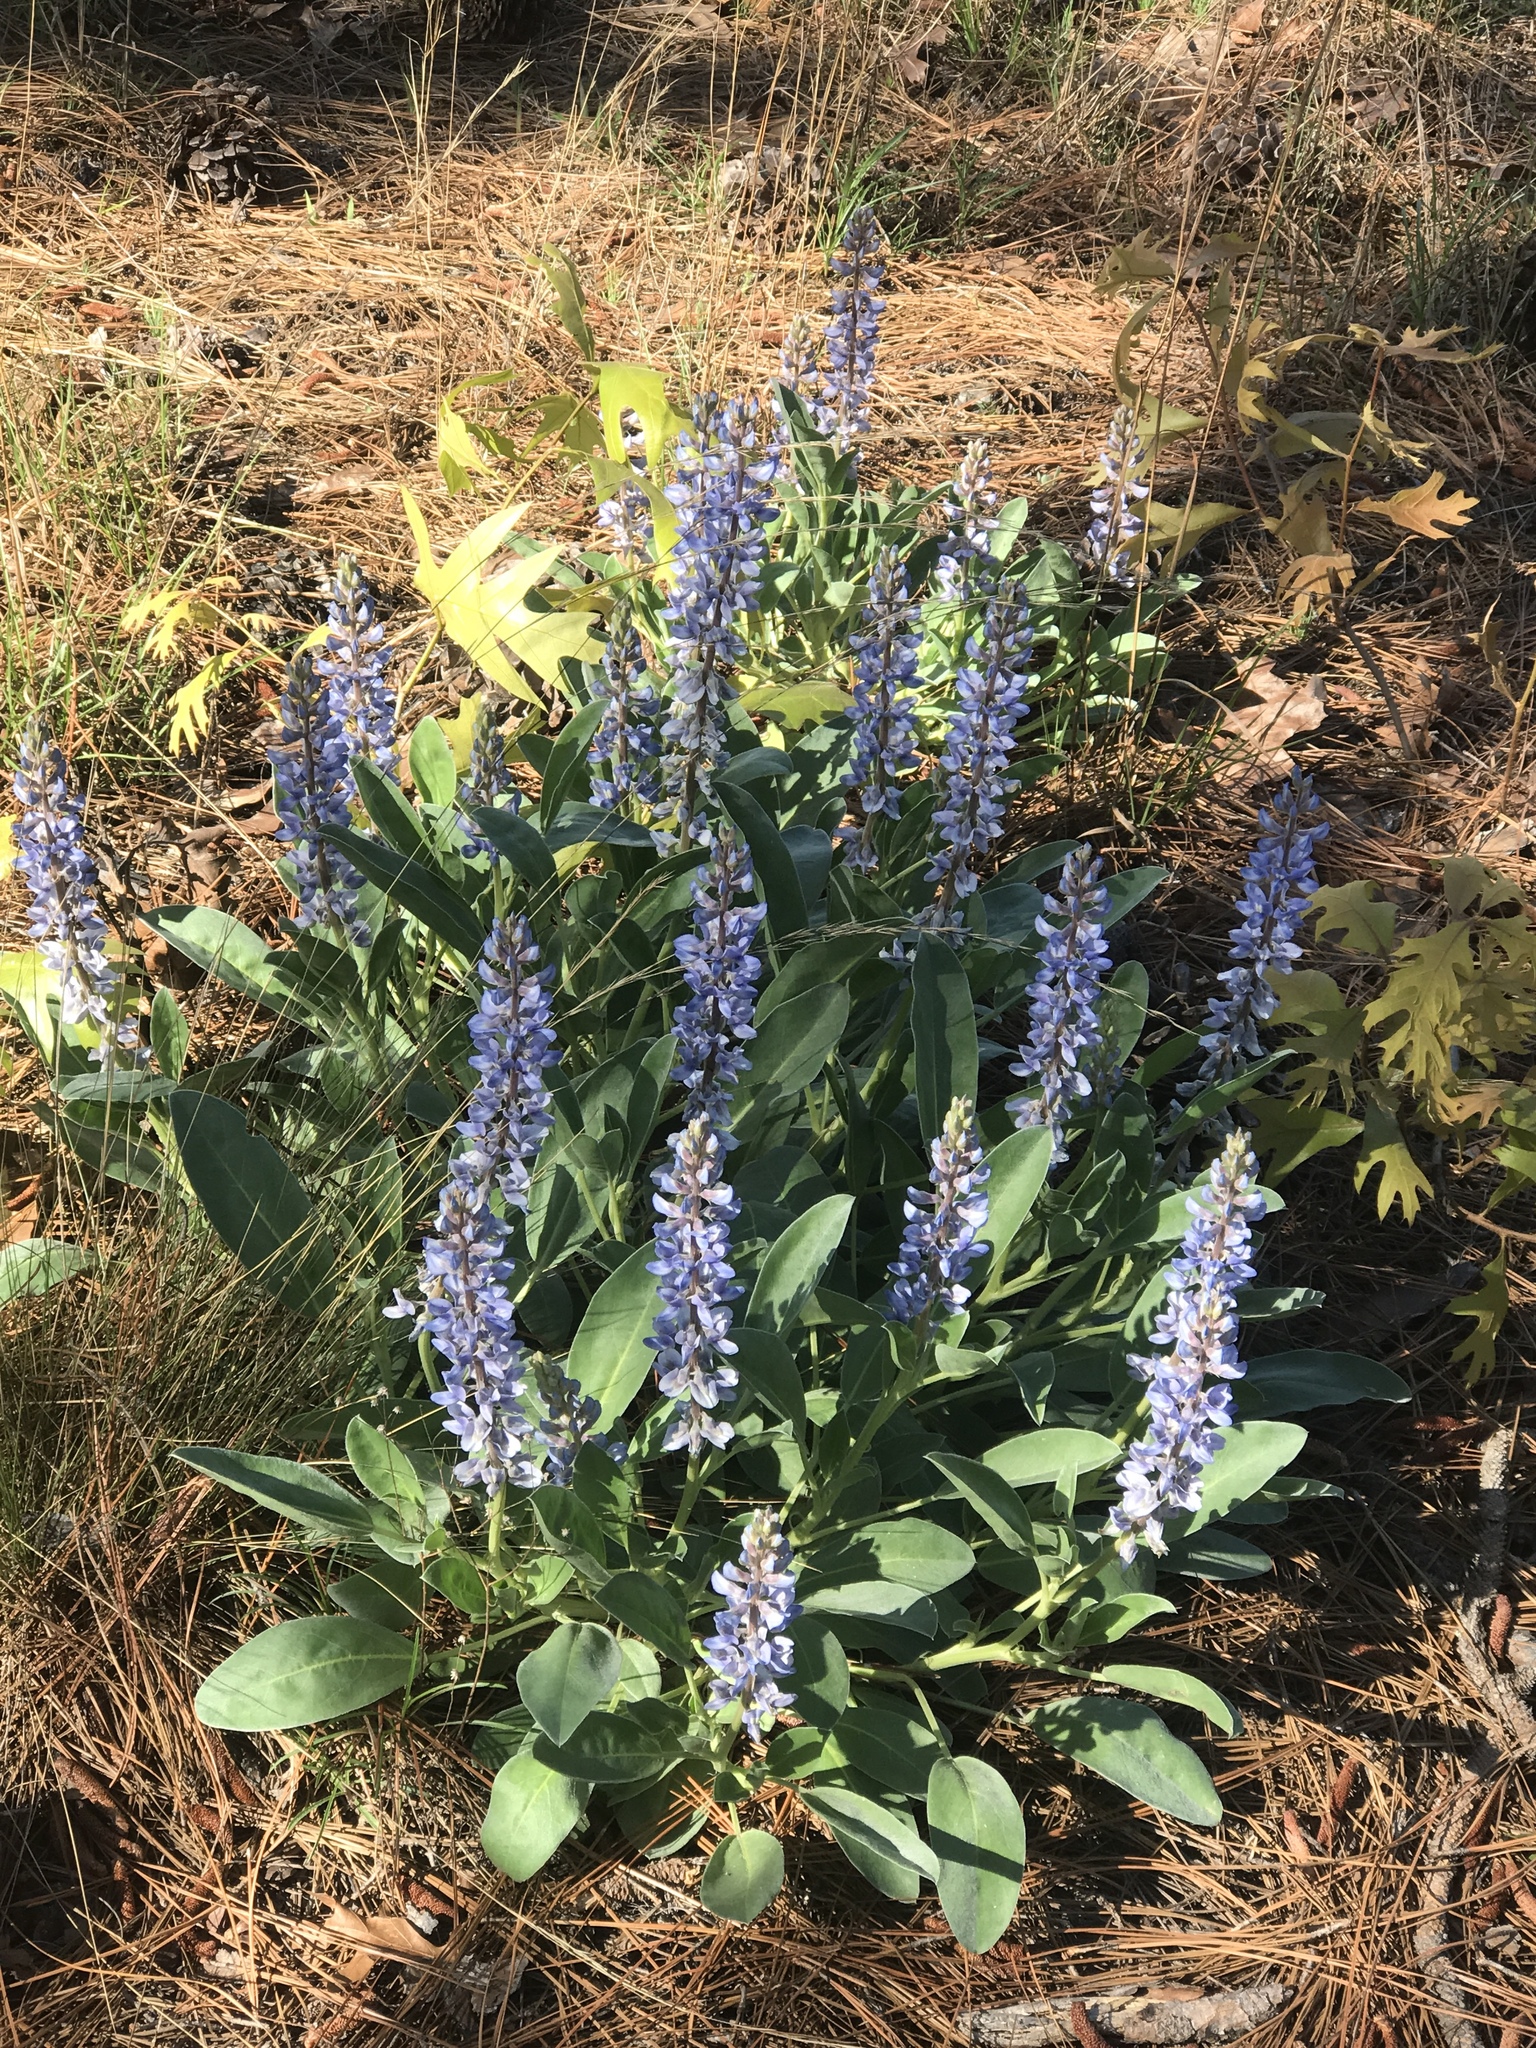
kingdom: Plantae
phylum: Tracheophyta
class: Magnoliopsida
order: Fabales
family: Fabaceae
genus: Lupinus
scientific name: Lupinus diffusus
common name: Oak ridge lupine
